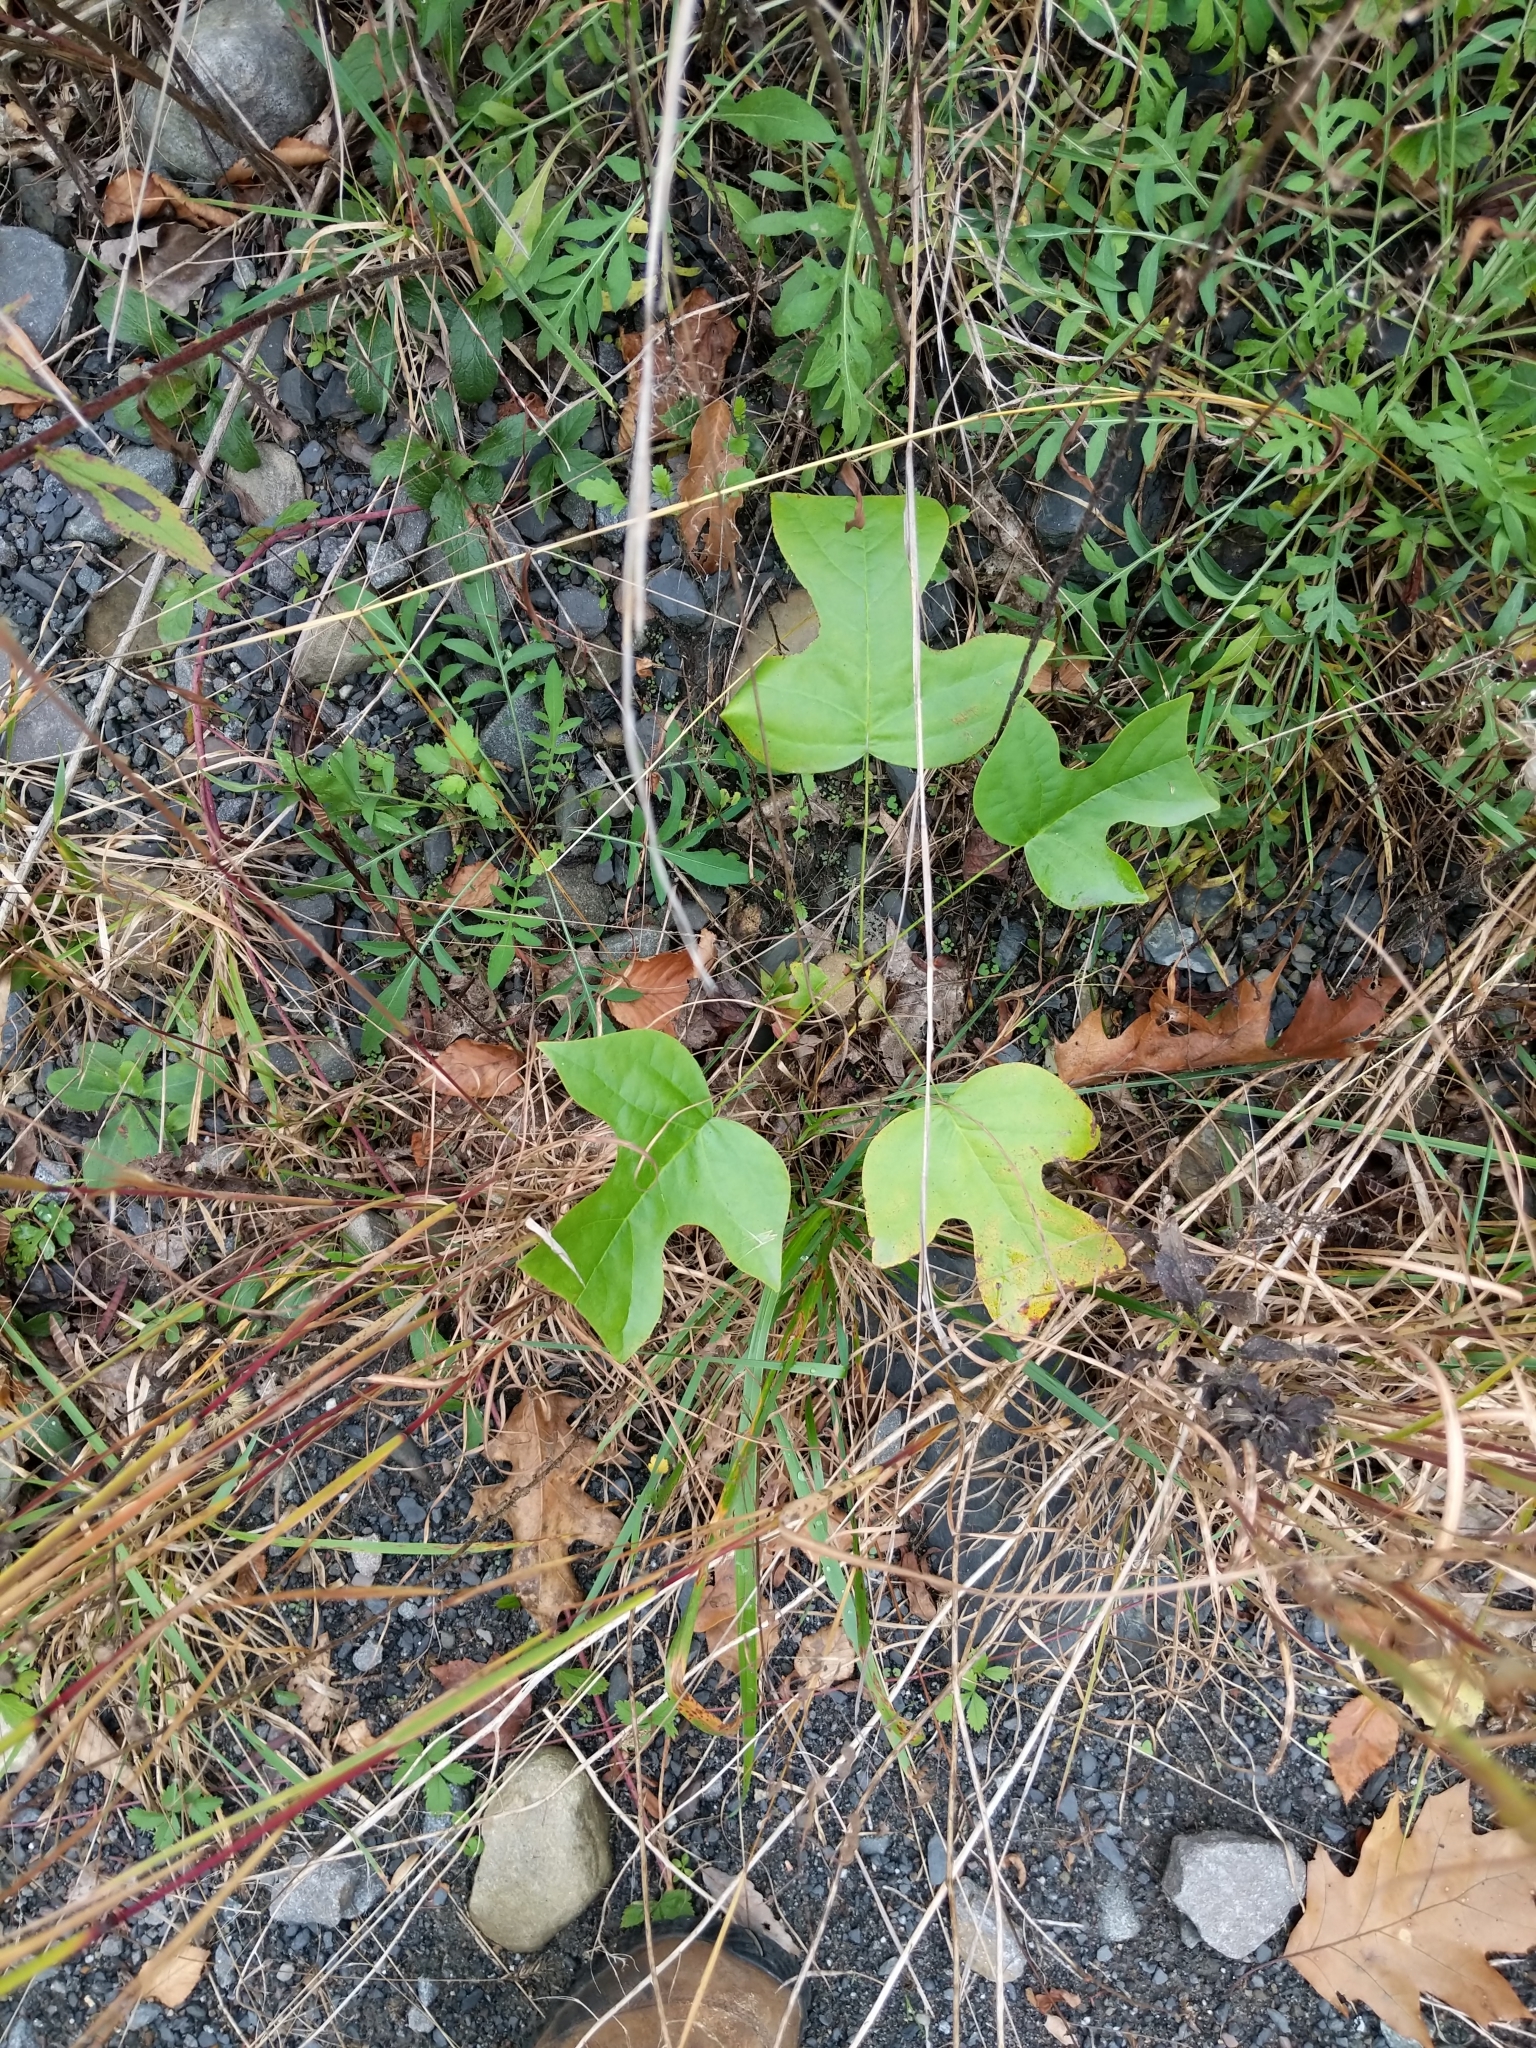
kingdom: Plantae
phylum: Tracheophyta
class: Magnoliopsida
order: Magnoliales
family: Magnoliaceae
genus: Liriodendron
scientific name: Liriodendron tulipifera
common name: Tulip tree
